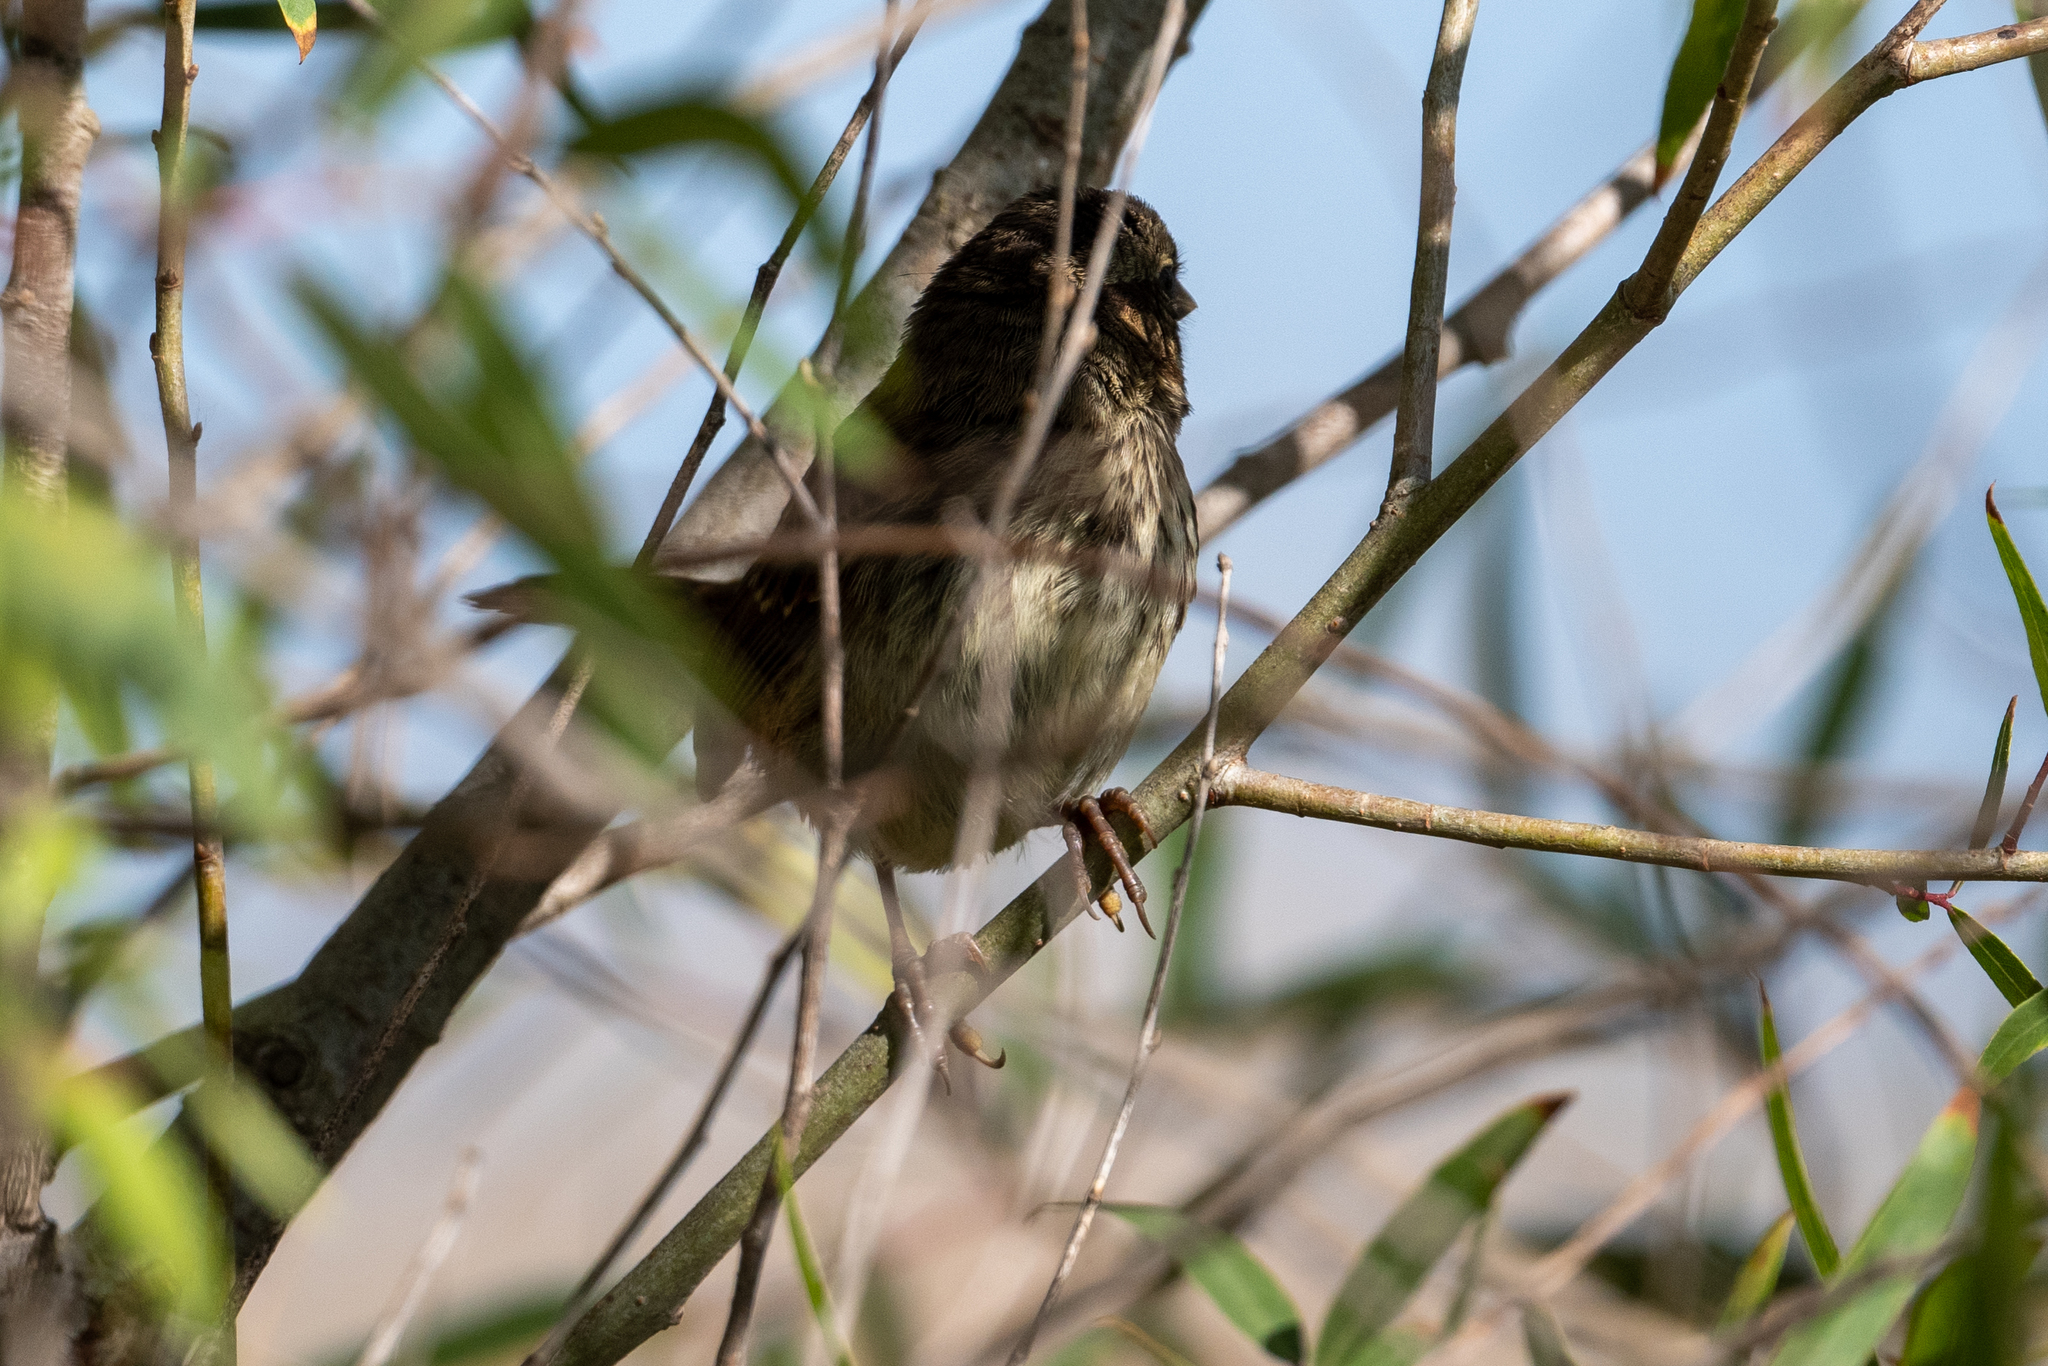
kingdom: Animalia
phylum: Chordata
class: Aves
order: Passeriformes
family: Passerellidae
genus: Melospiza
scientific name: Melospiza melodia
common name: Song sparrow
